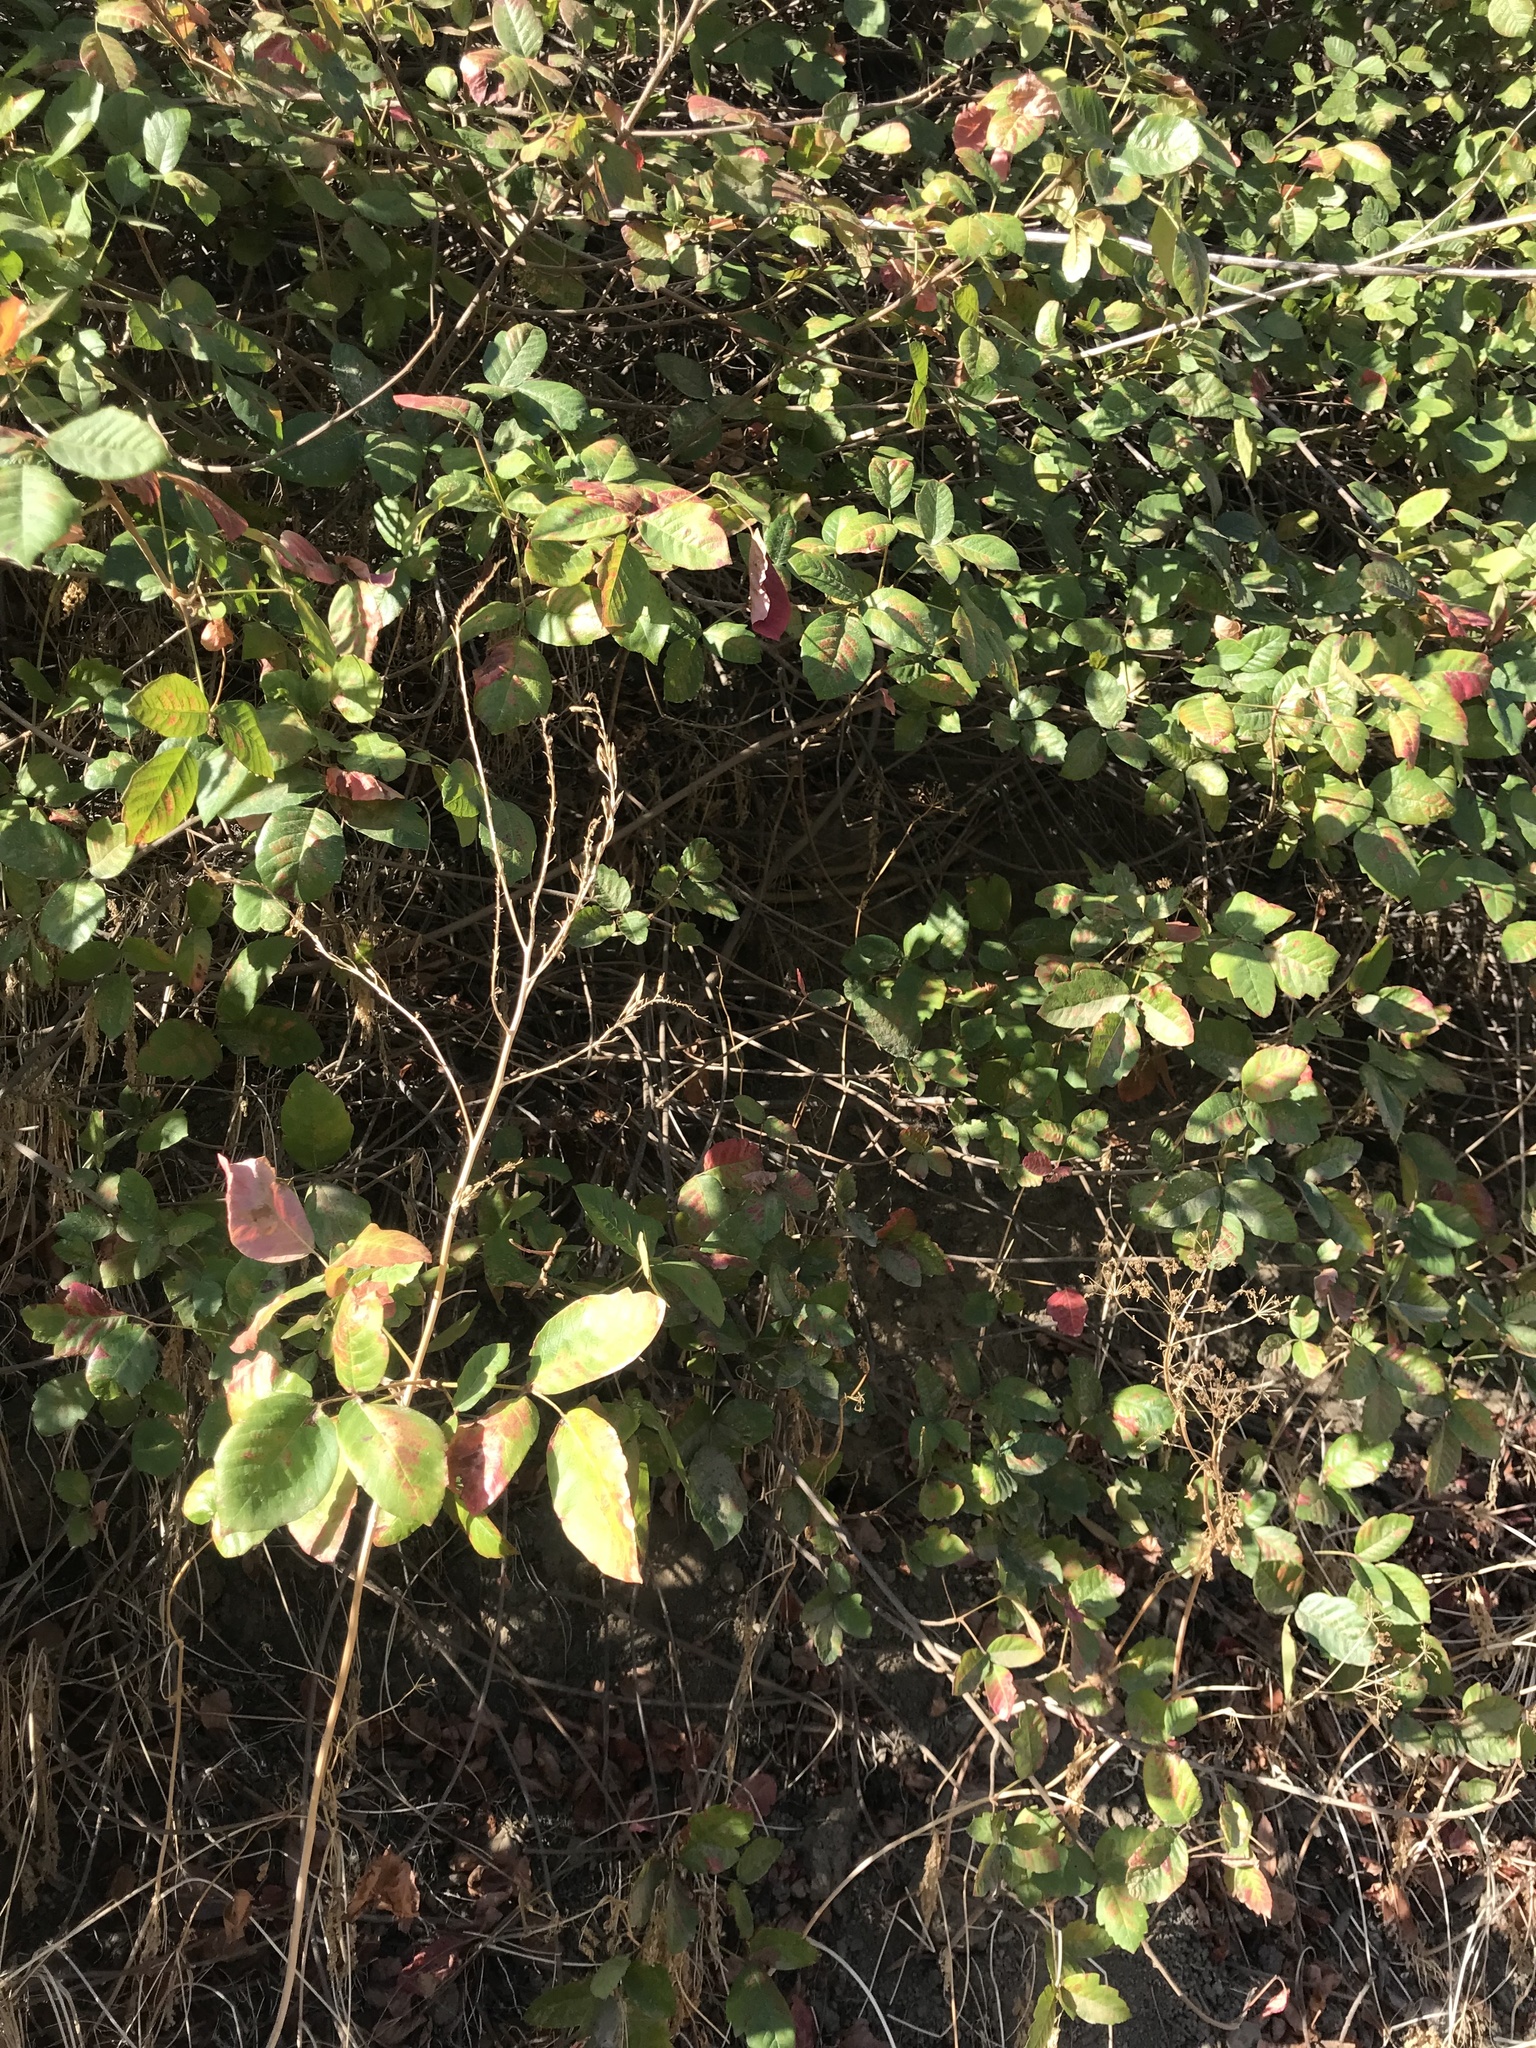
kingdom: Plantae
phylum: Tracheophyta
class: Magnoliopsida
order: Sapindales
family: Anacardiaceae
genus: Toxicodendron
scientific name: Toxicodendron diversilobum
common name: Pacific poison-oak
